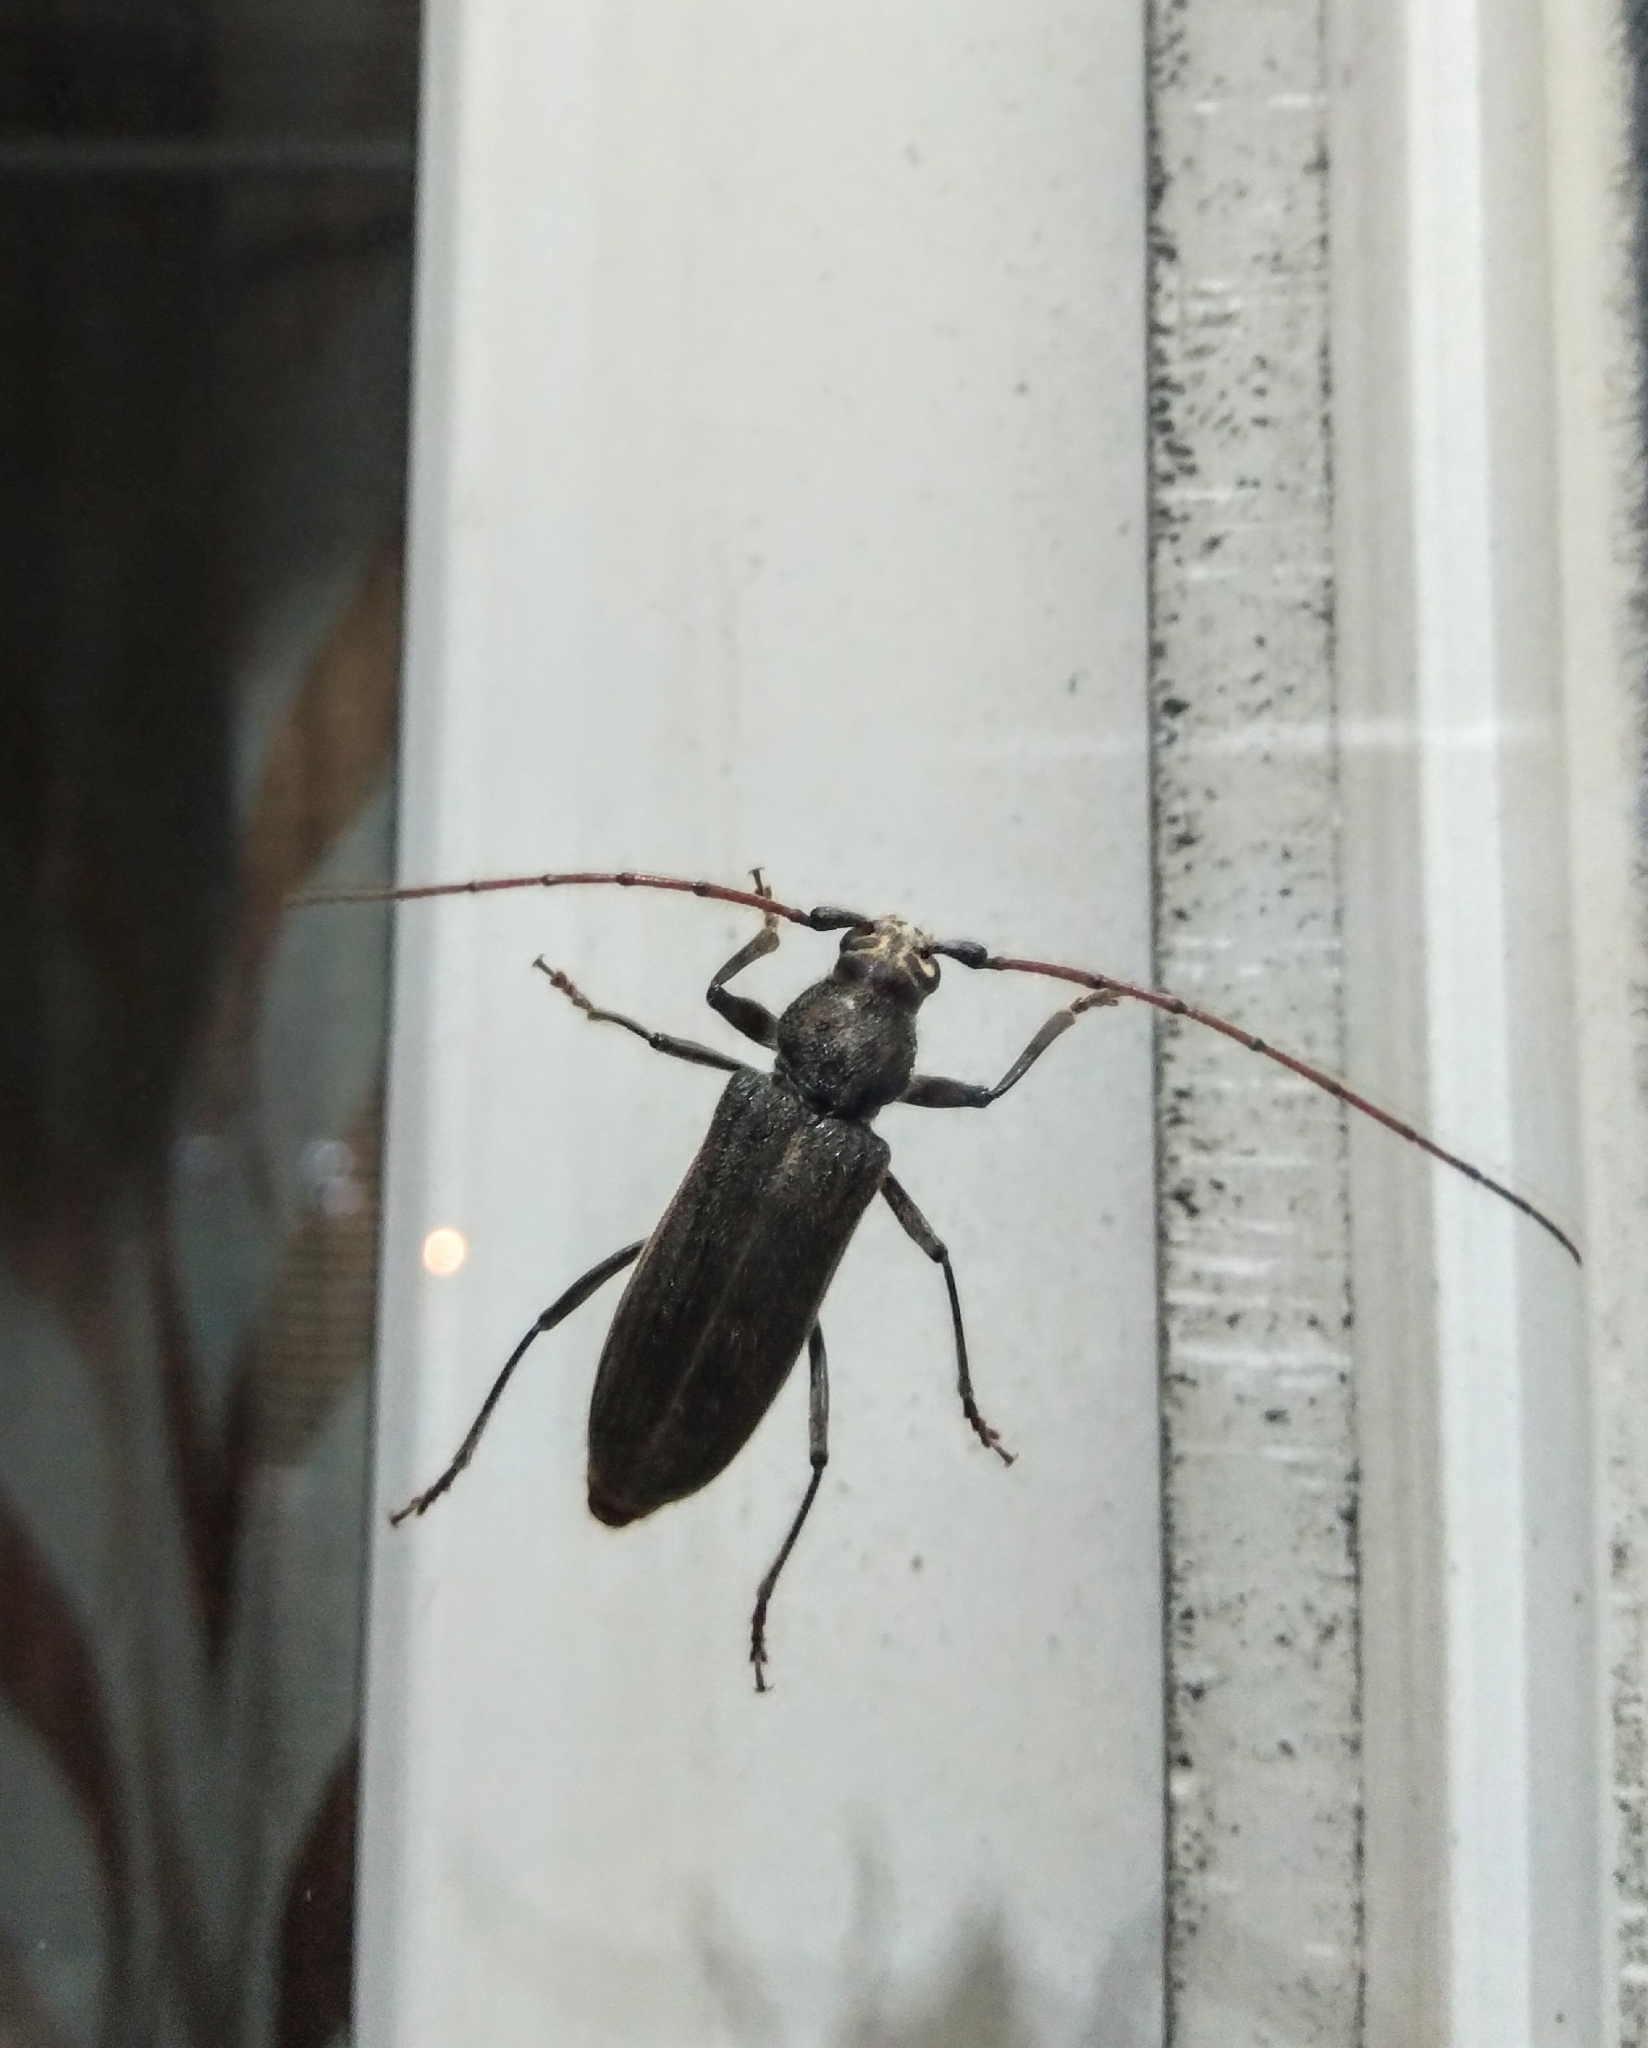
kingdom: Animalia
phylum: Arthropoda
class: Insecta
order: Coleoptera
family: Cerambycidae
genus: Stromatium
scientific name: Stromatium barbatum
